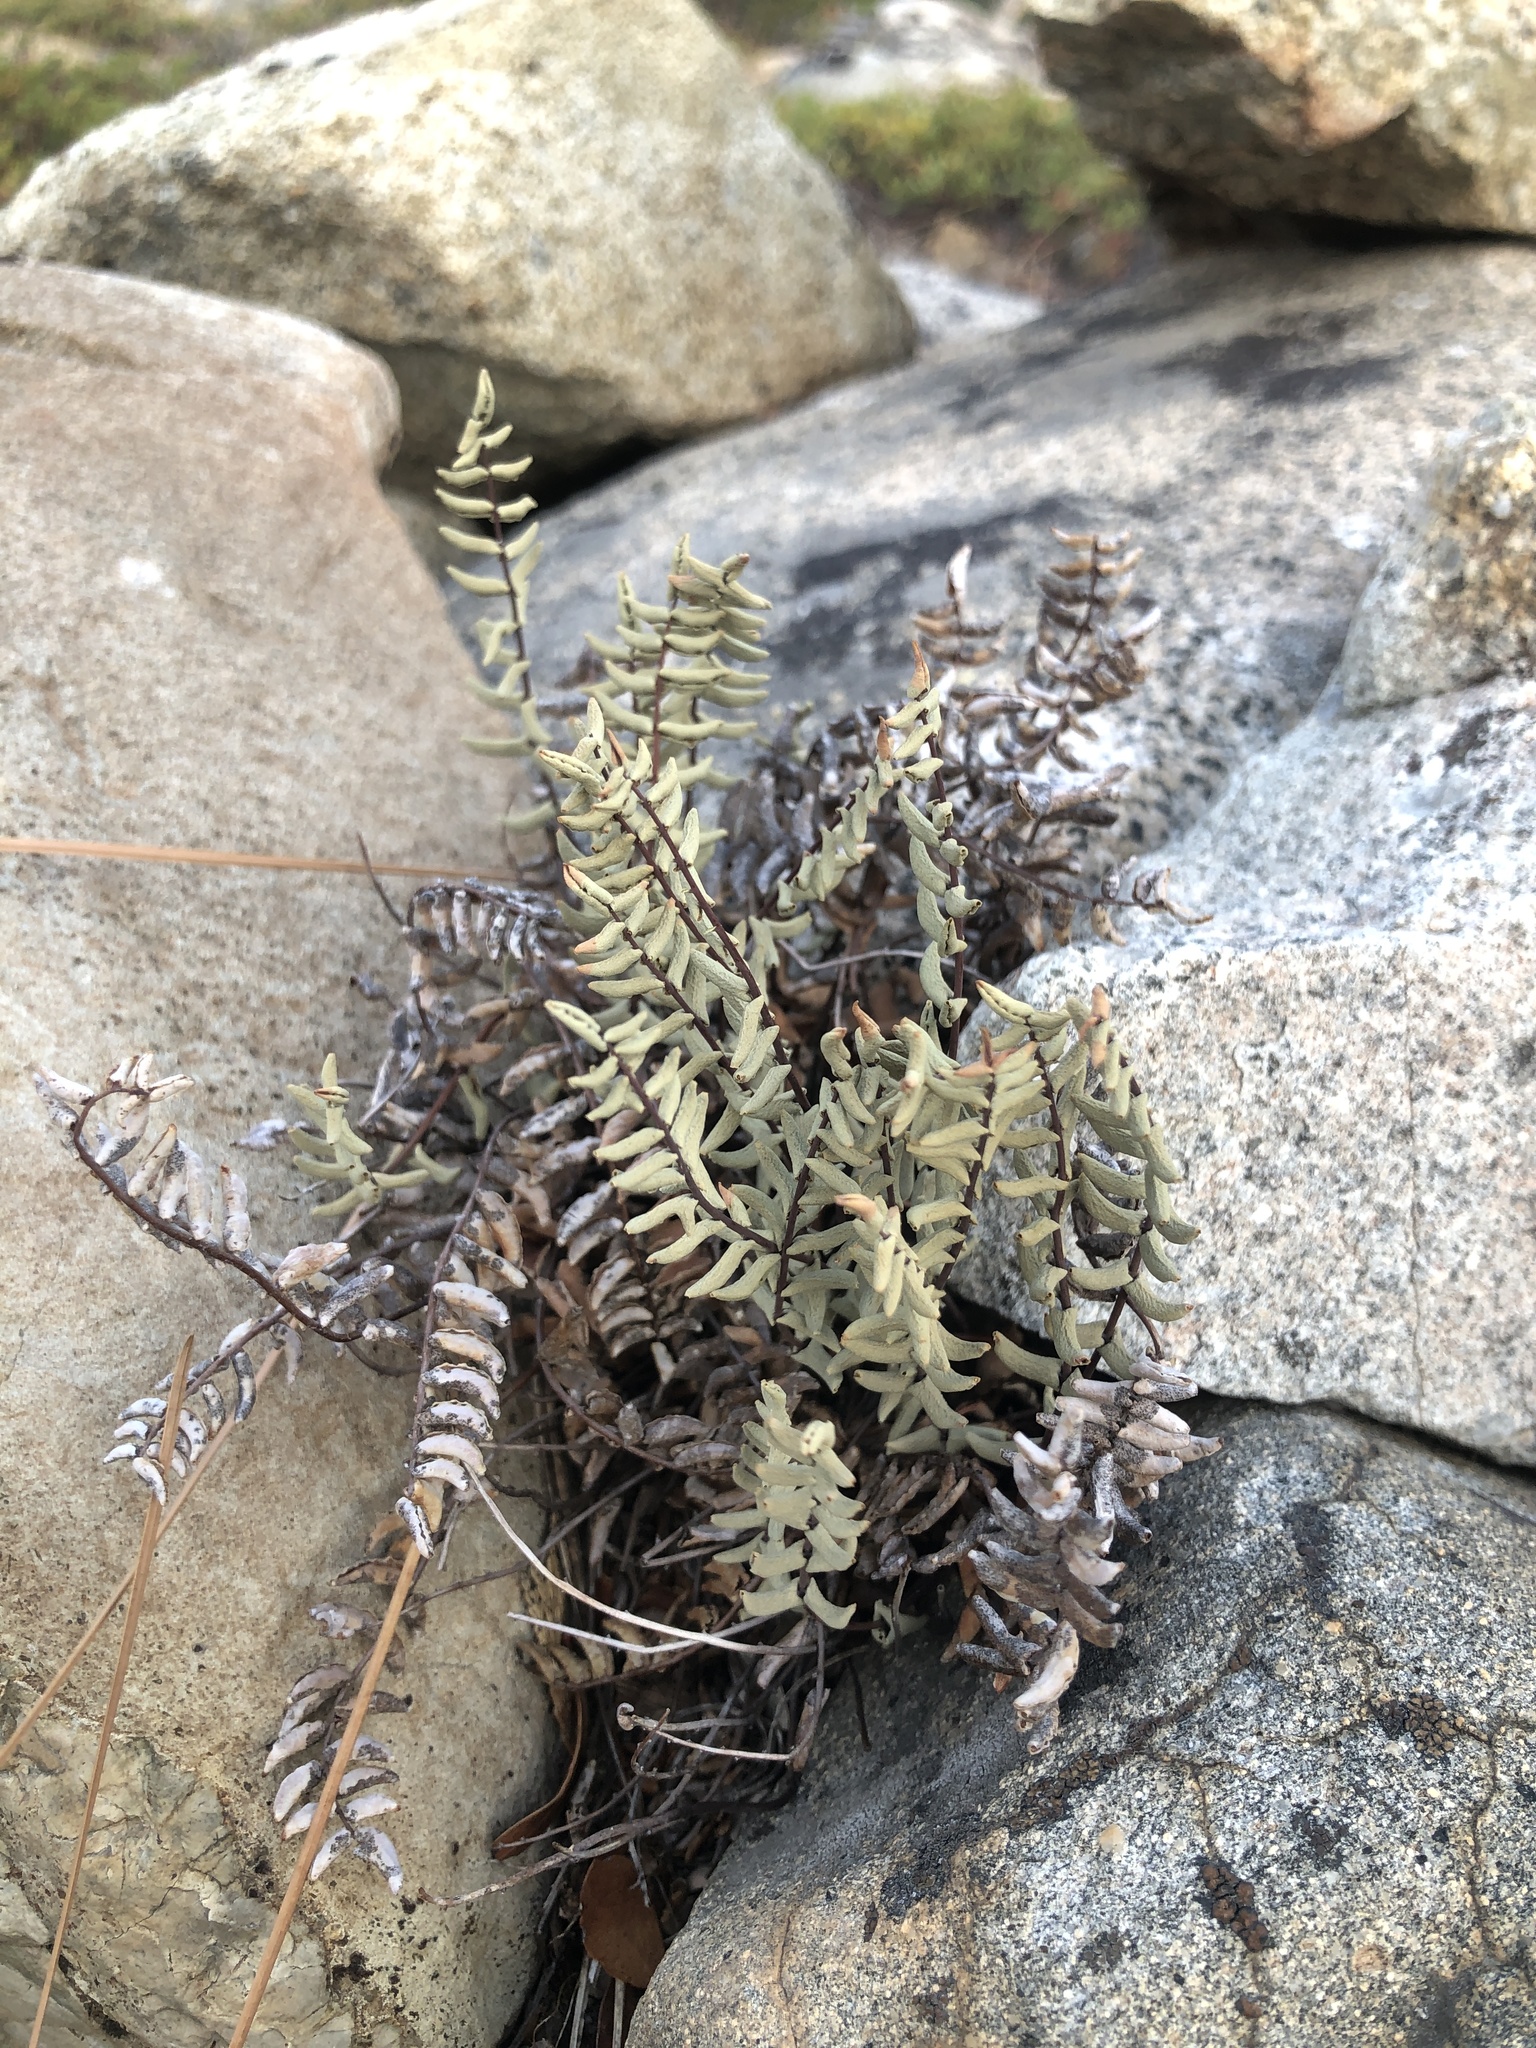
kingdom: Plantae
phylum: Tracheophyta
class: Polypodiopsida
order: Polypodiales
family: Pteridaceae
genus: Pellaea
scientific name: Pellaea bridgesii
